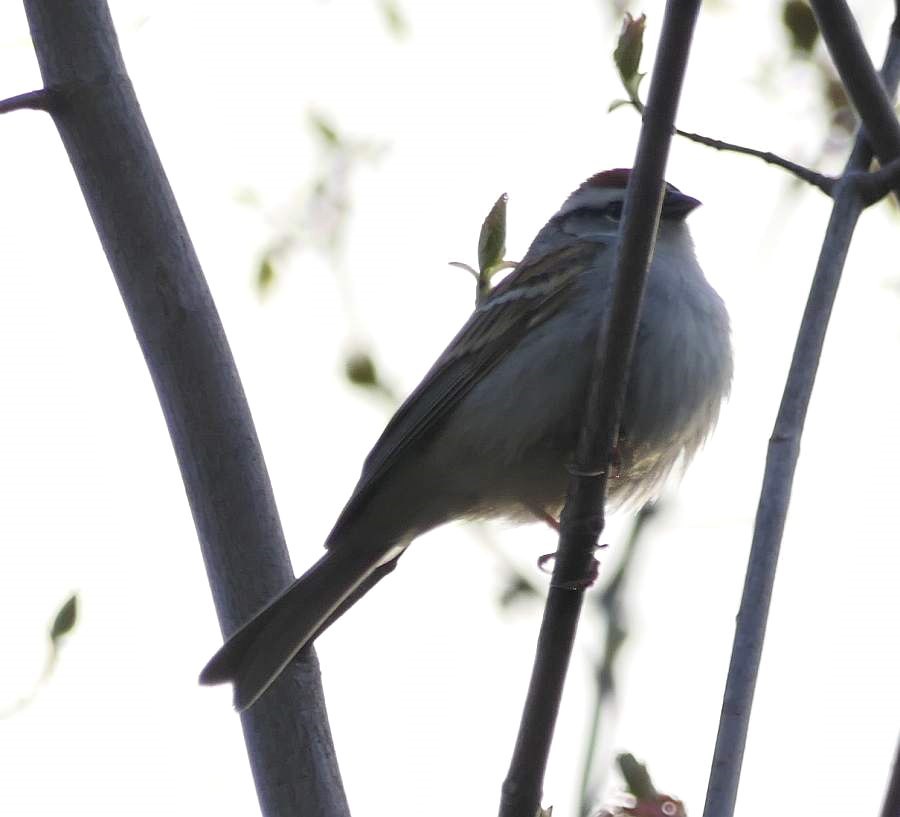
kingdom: Animalia
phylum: Chordata
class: Aves
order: Passeriformes
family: Passerellidae
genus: Spizella
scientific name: Spizella passerina
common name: Chipping sparrow
